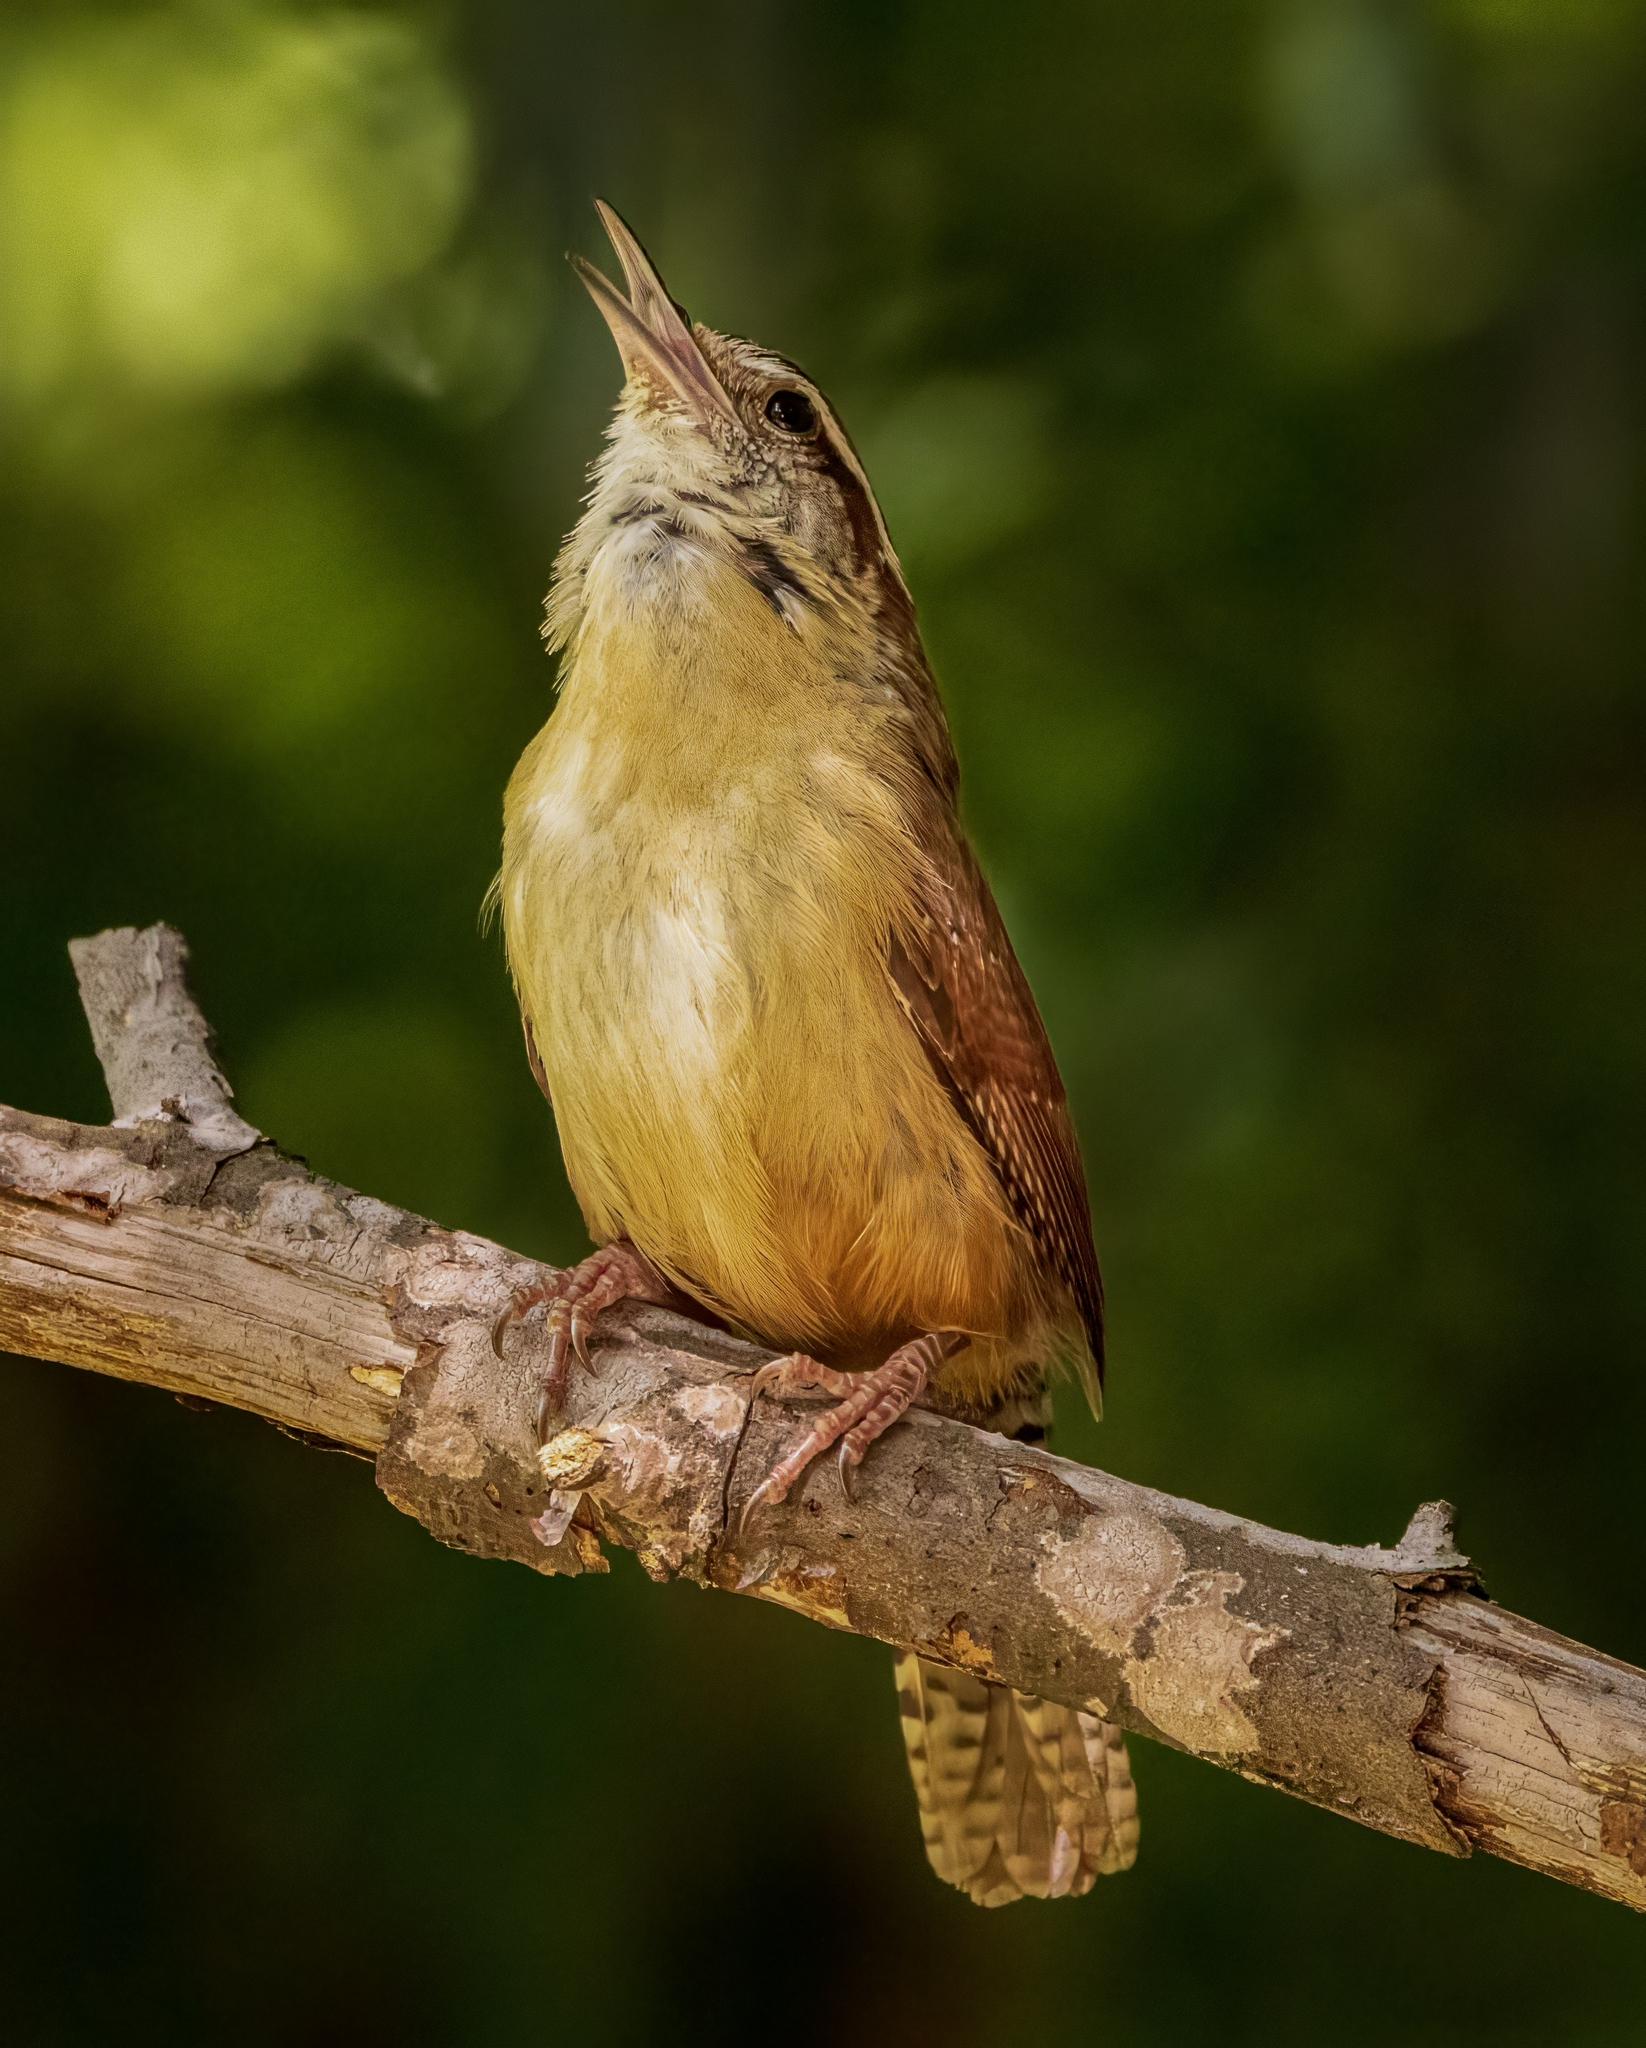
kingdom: Animalia
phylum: Chordata
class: Aves
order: Passeriformes
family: Troglodytidae
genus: Thryothorus
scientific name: Thryothorus ludovicianus
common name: Carolina wren
